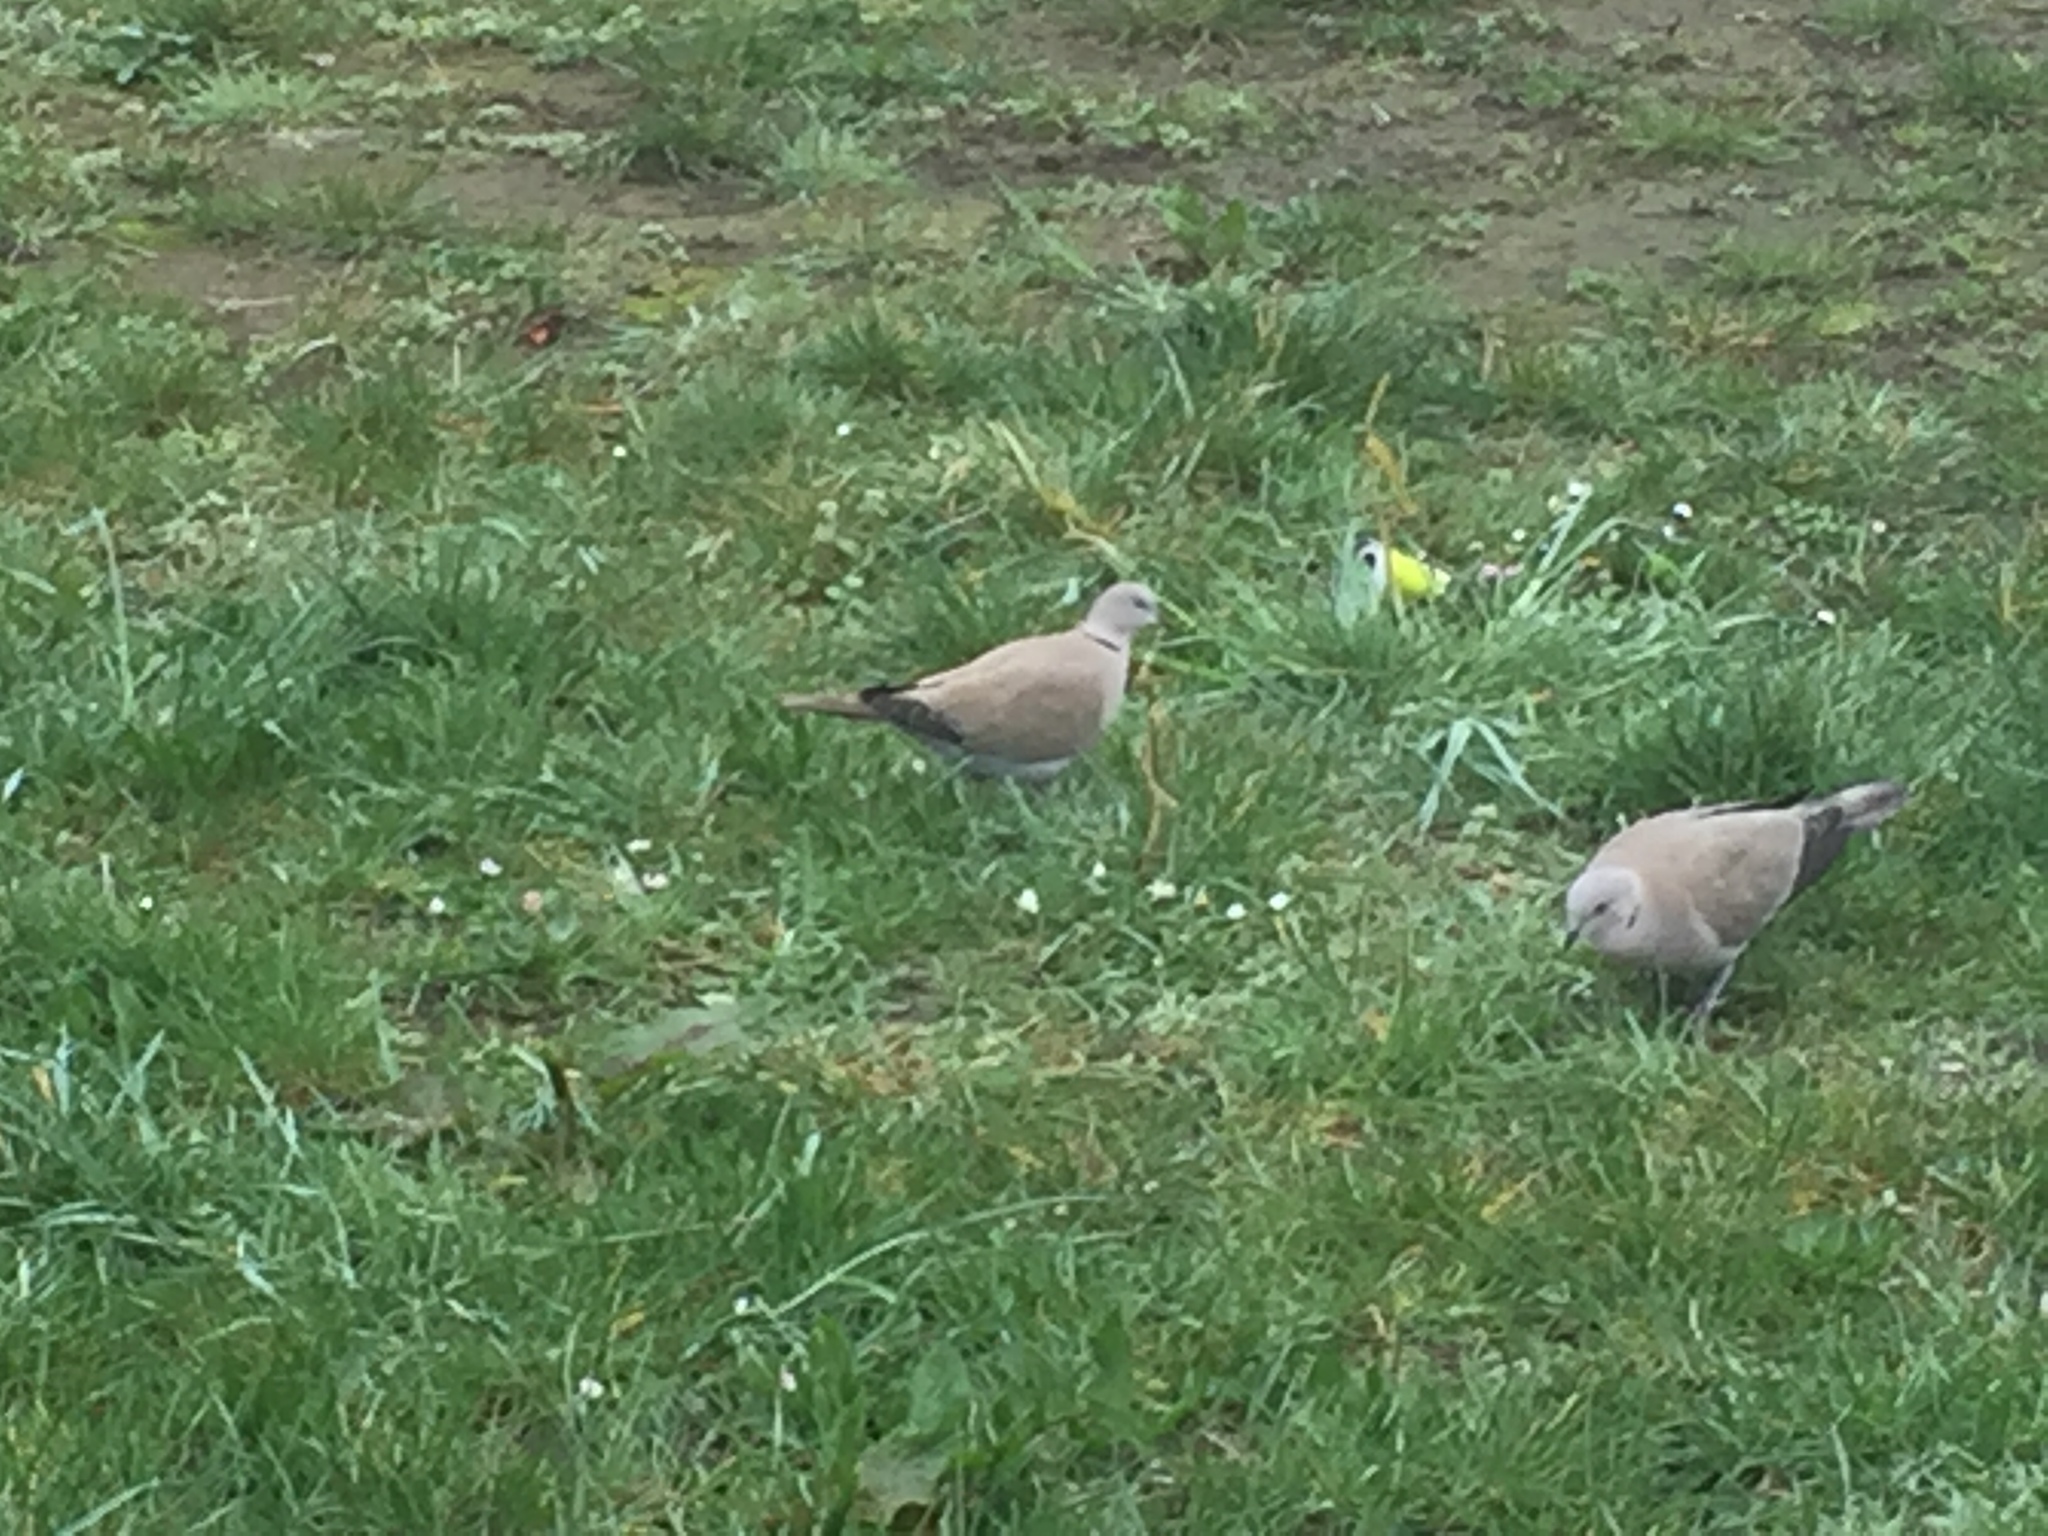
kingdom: Animalia
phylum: Chordata
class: Aves
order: Columbiformes
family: Columbidae
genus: Streptopelia
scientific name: Streptopelia decaocto
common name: Eurasian collared dove
